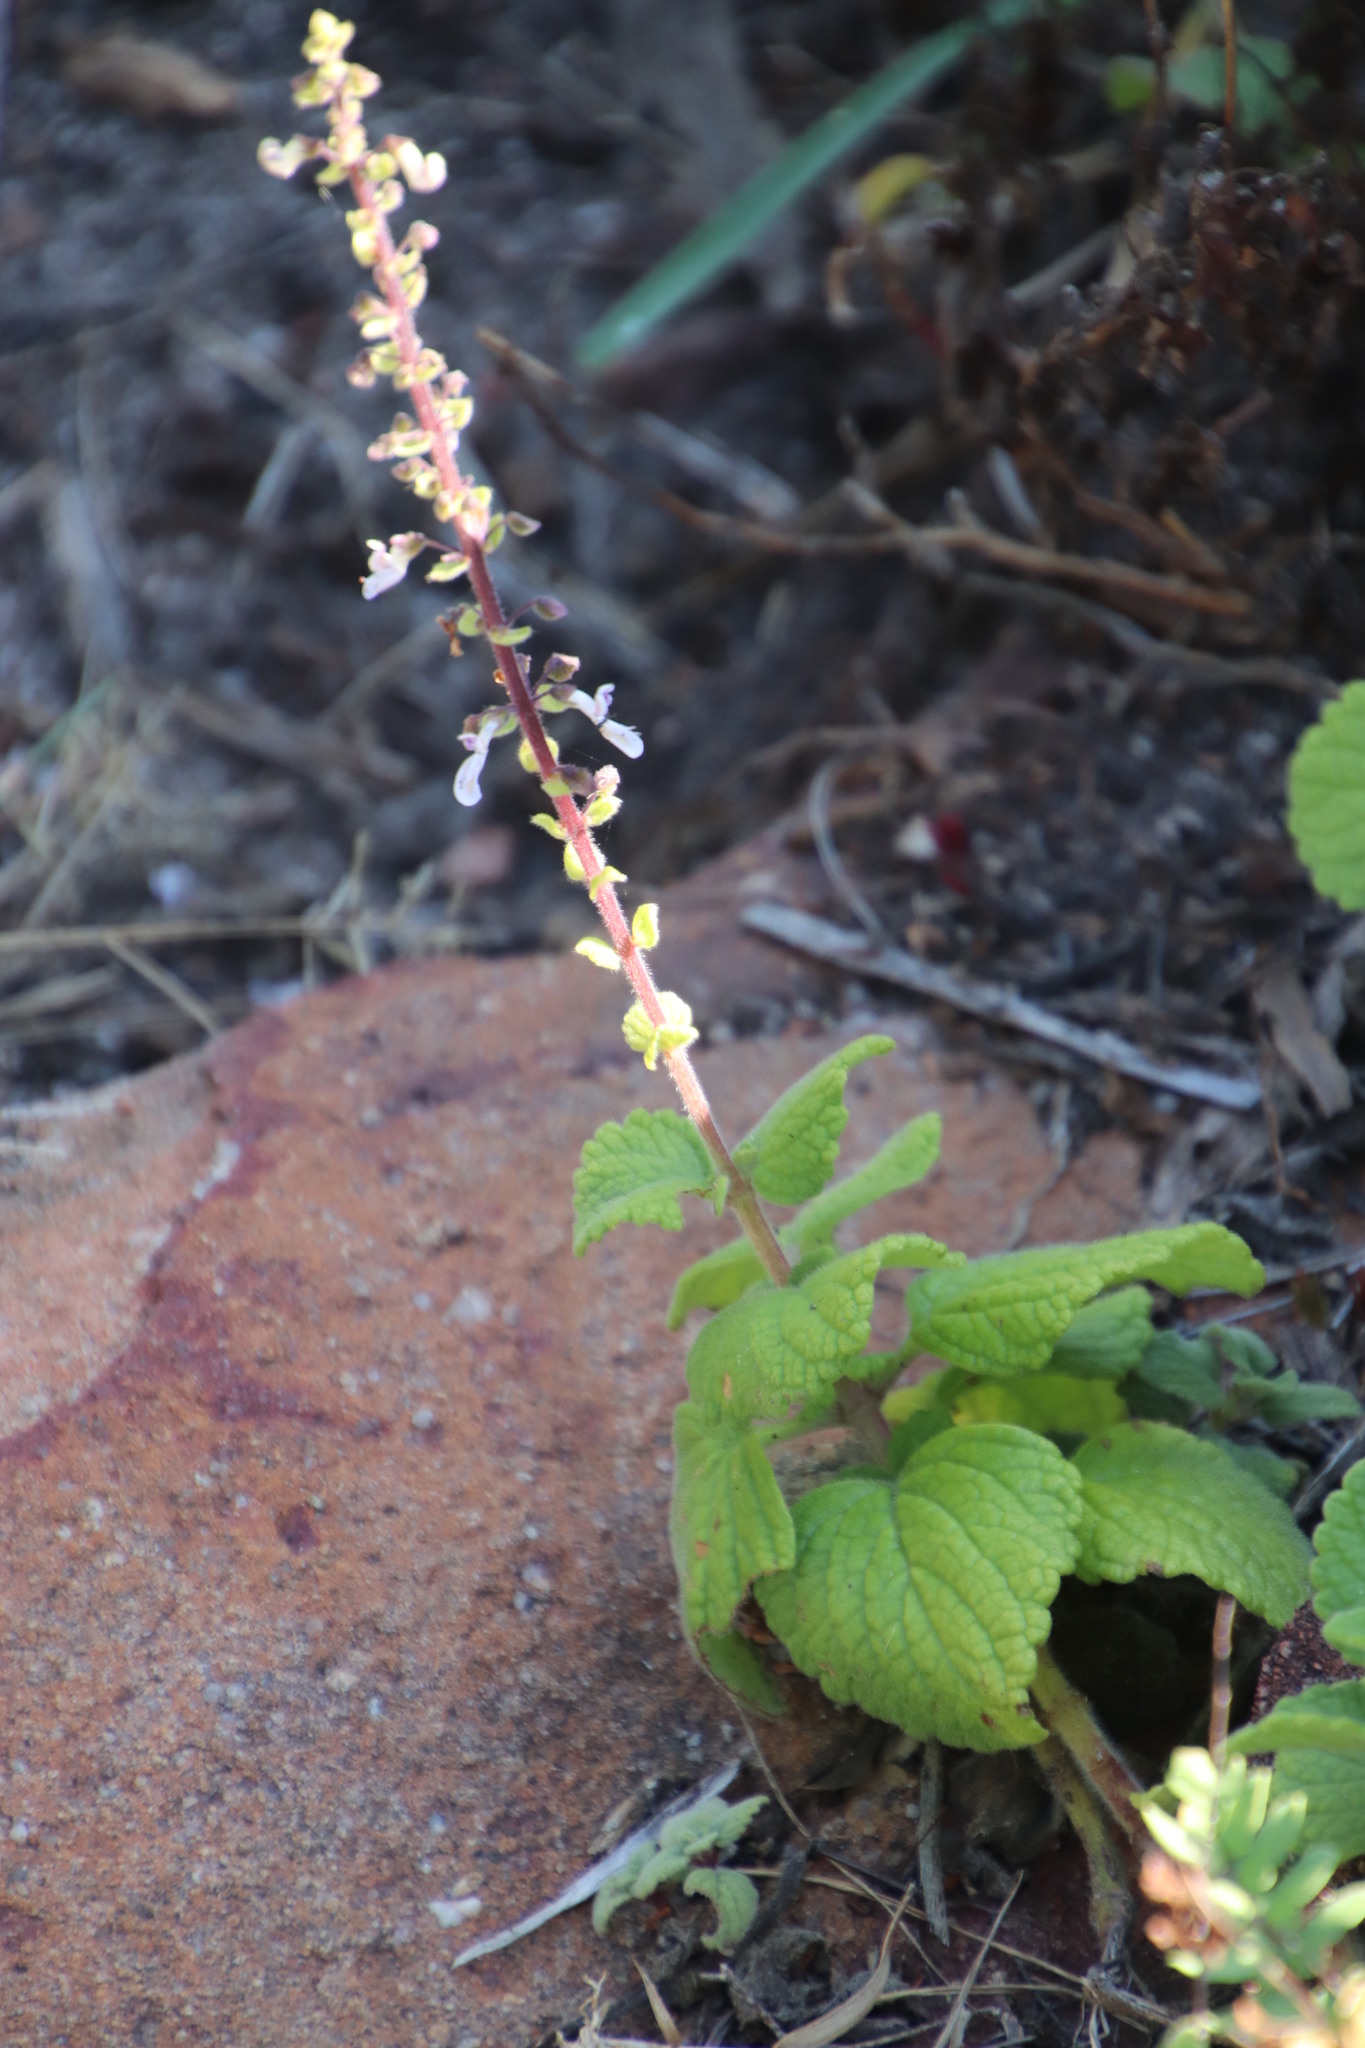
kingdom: Plantae
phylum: Tracheophyta
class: Magnoliopsida
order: Lamiales
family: Lamiaceae
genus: Coleus
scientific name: Coleus hadiensis
